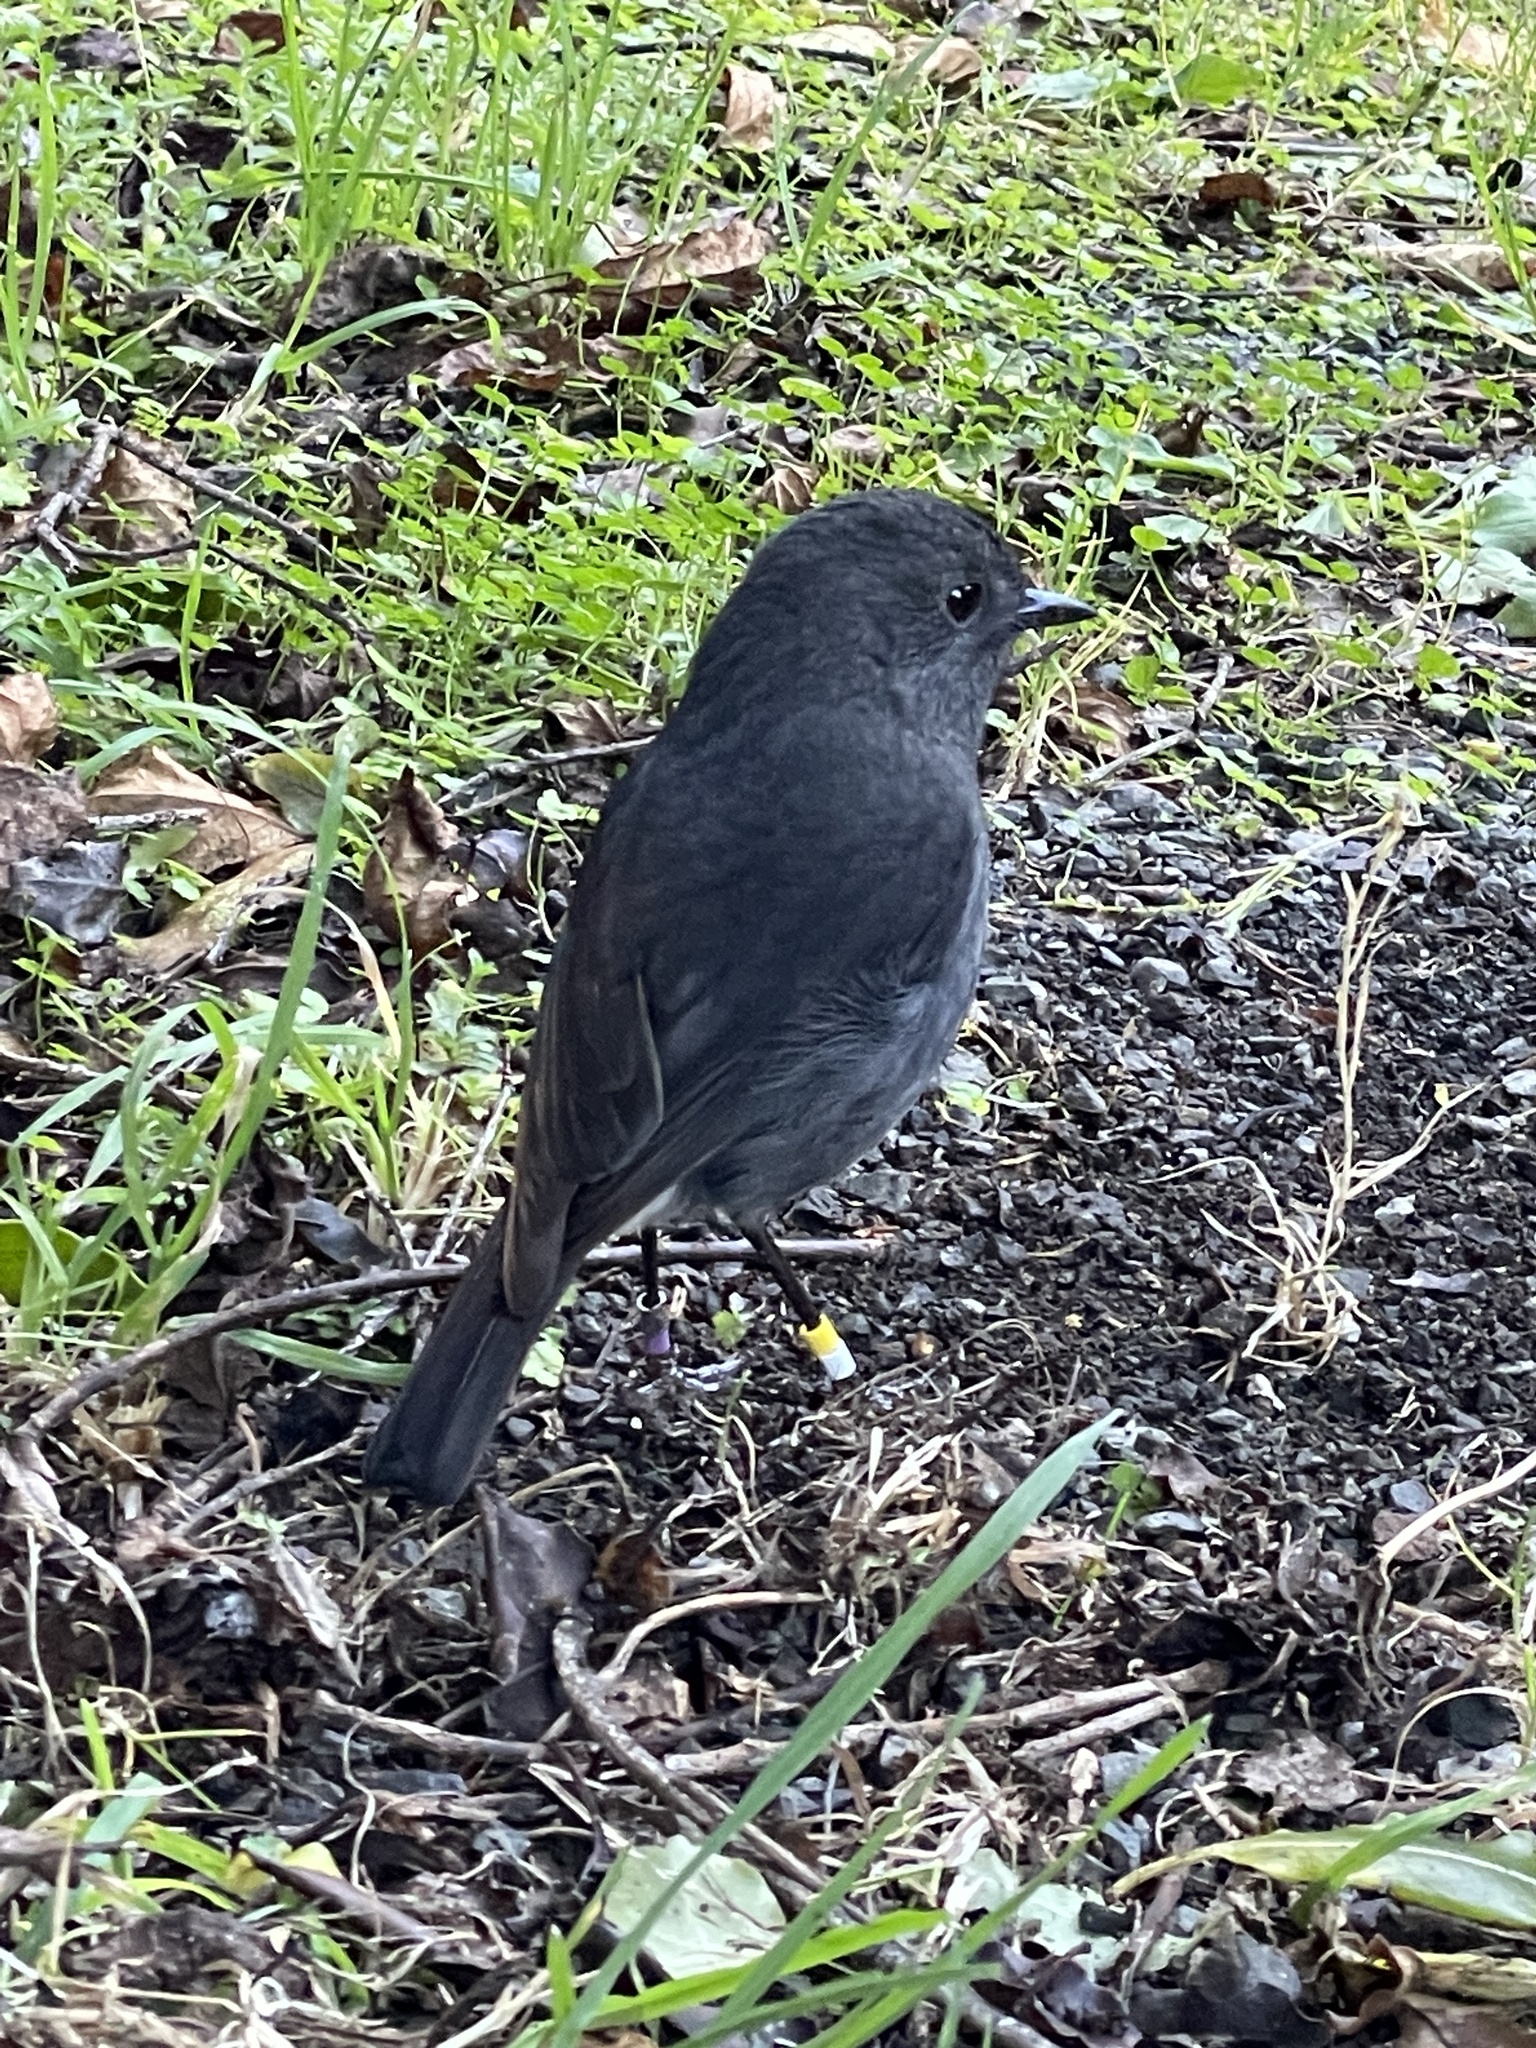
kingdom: Animalia
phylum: Chordata
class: Aves
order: Passeriformes
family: Petroicidae
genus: Petroica
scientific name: Petroica australis
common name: New zealand robin
